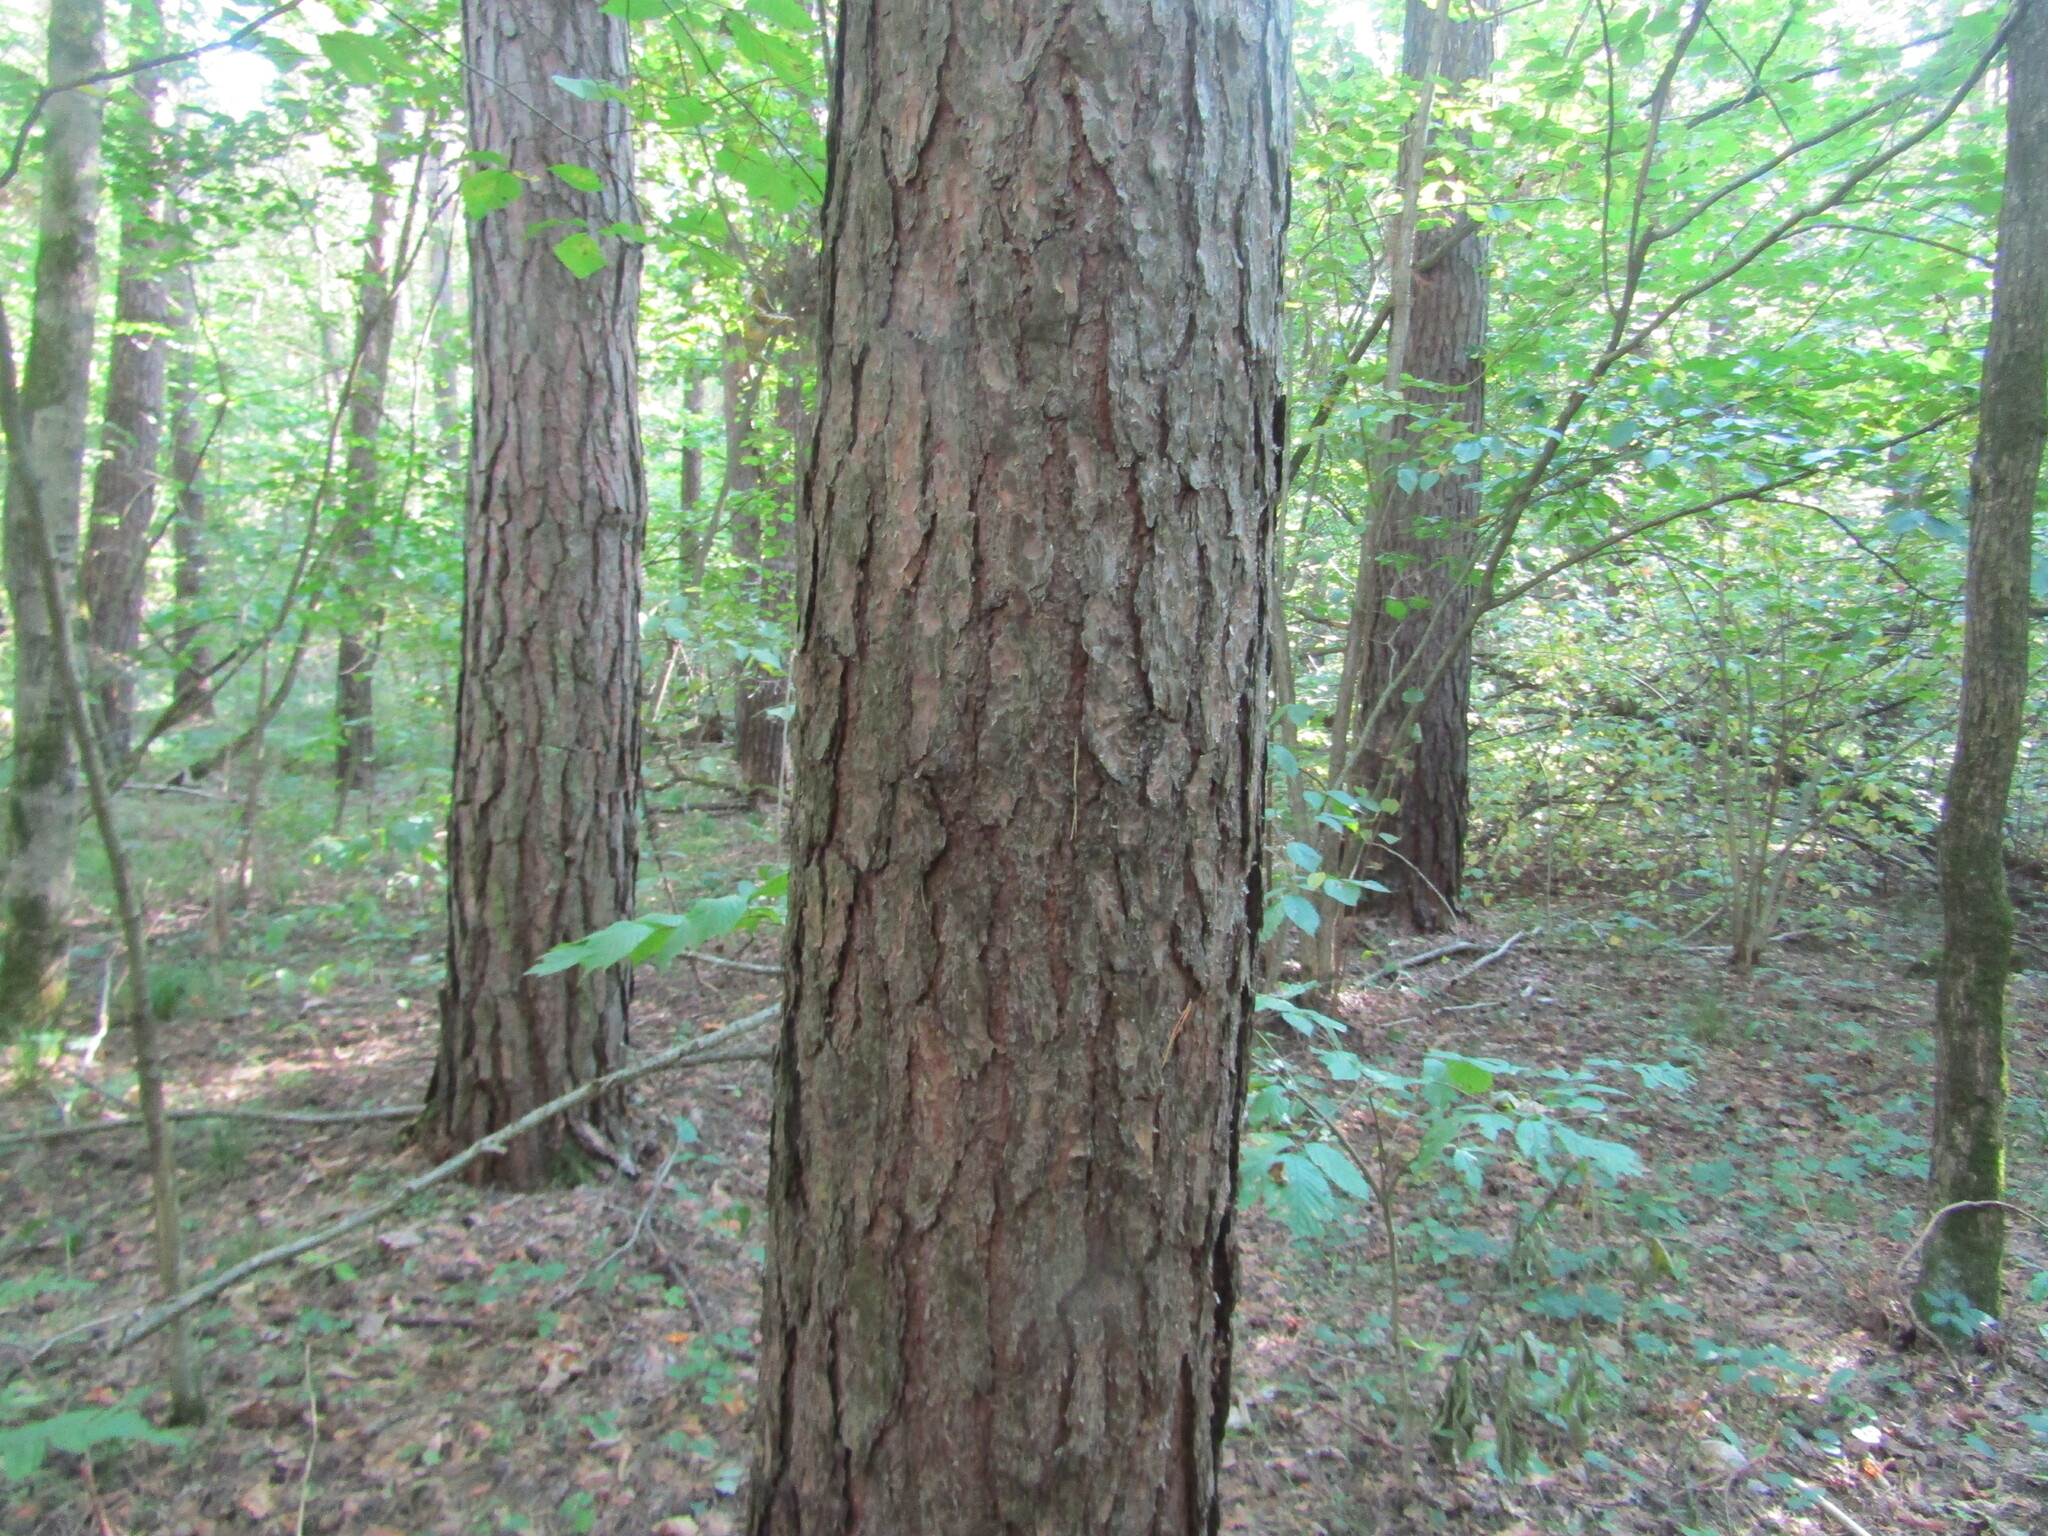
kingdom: Plantae
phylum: Tracheophyta
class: Pinopsida
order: Pinales
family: Pinaceae
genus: Pinus
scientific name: Pinus sylvestris
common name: Scots pine
